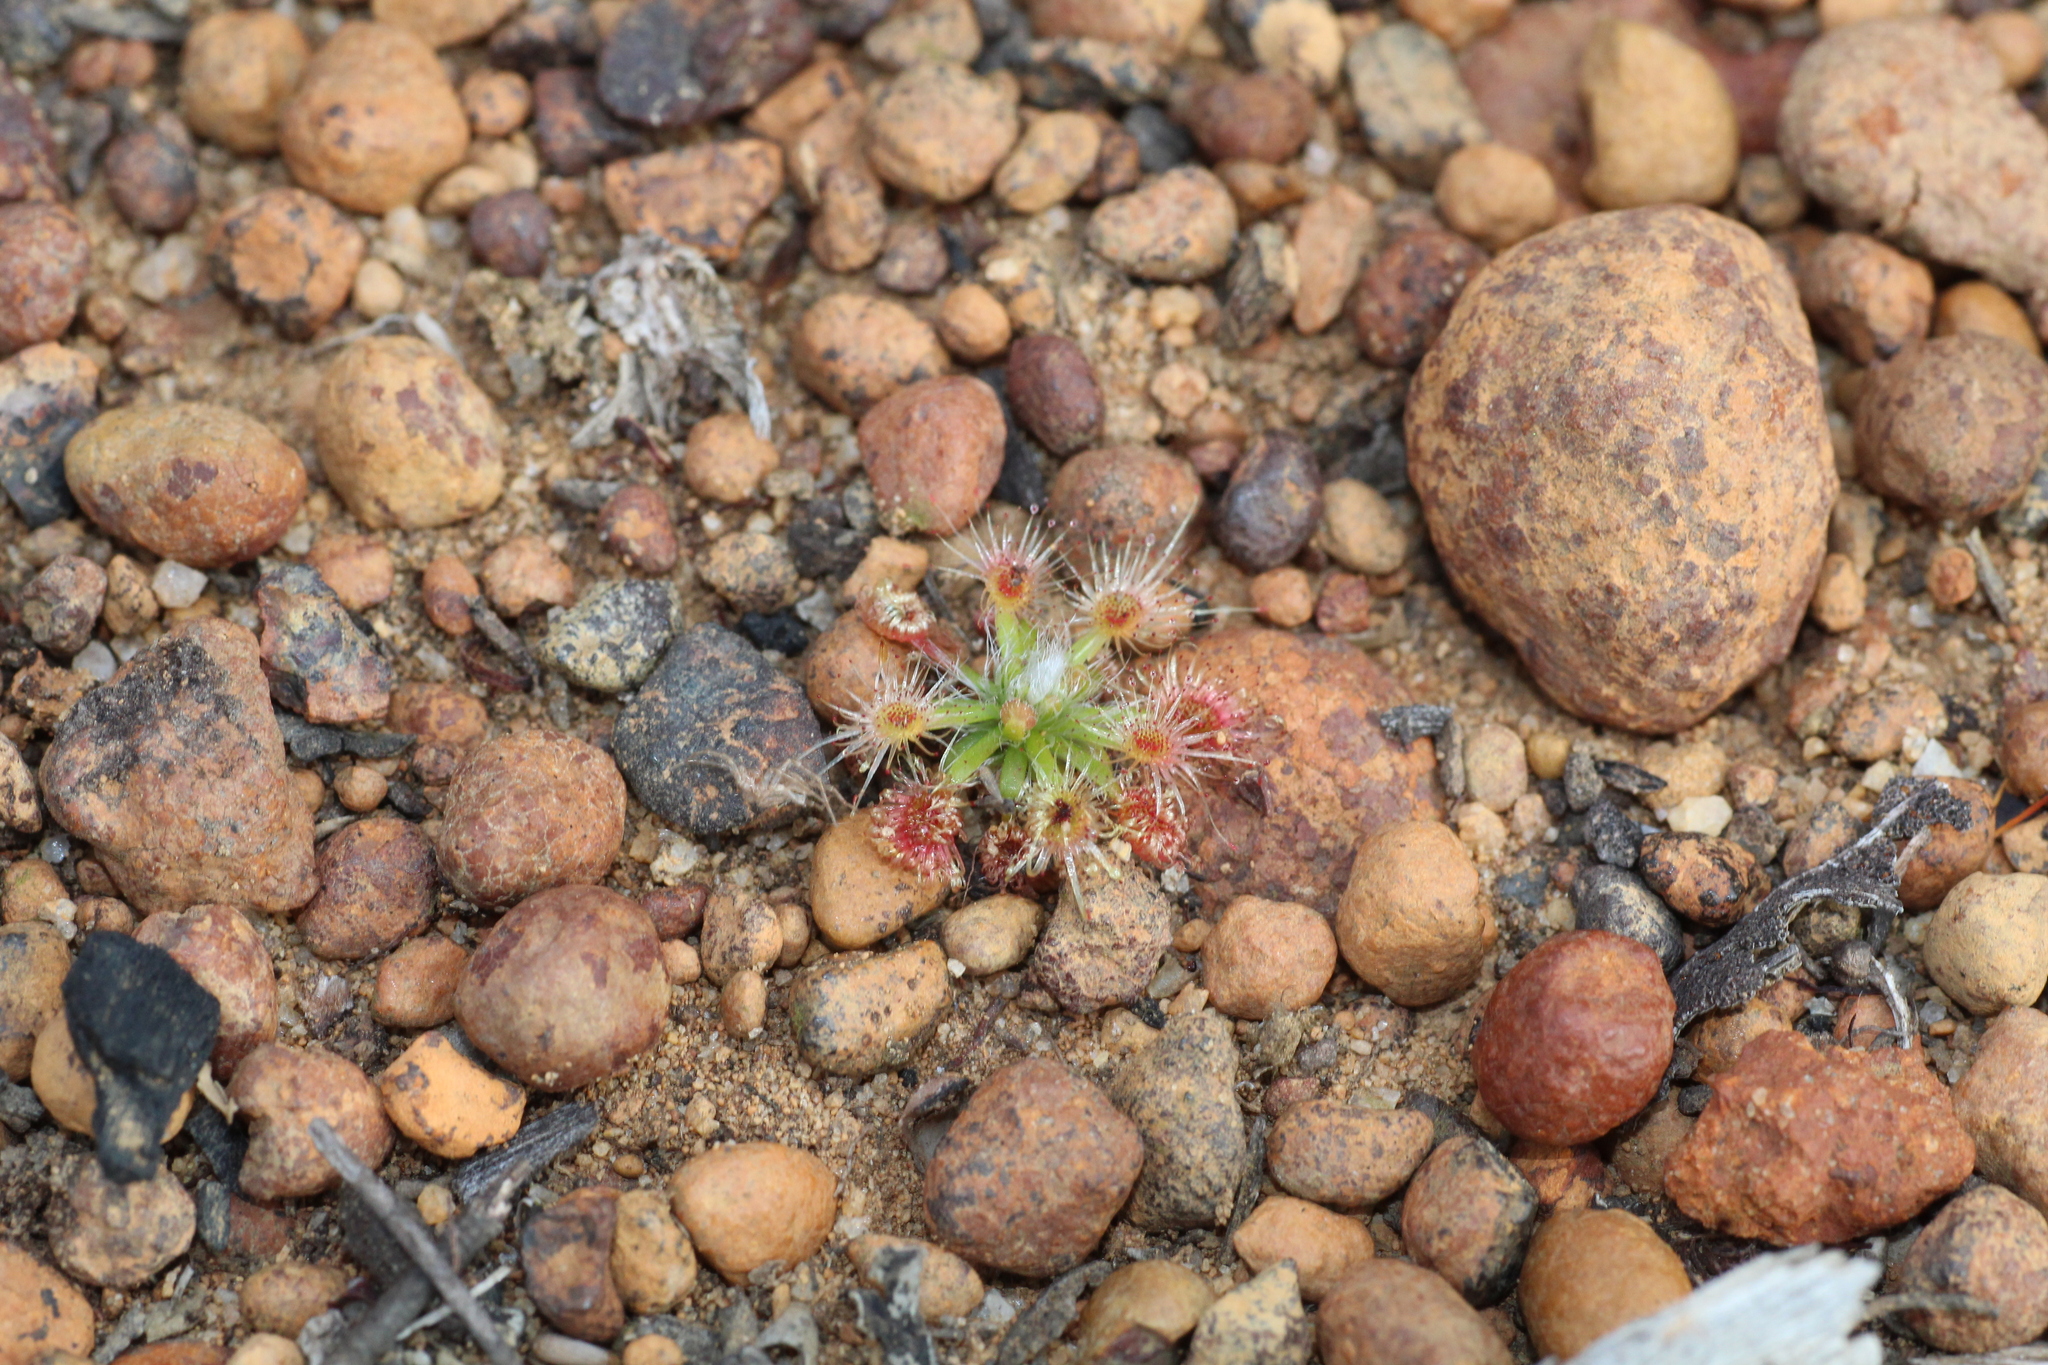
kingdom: Plantae
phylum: Tracheophyta
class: Magnoliopsida
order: Caryophyllales
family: Droseraceae
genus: Drosera
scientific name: Drosera hyperostigma
